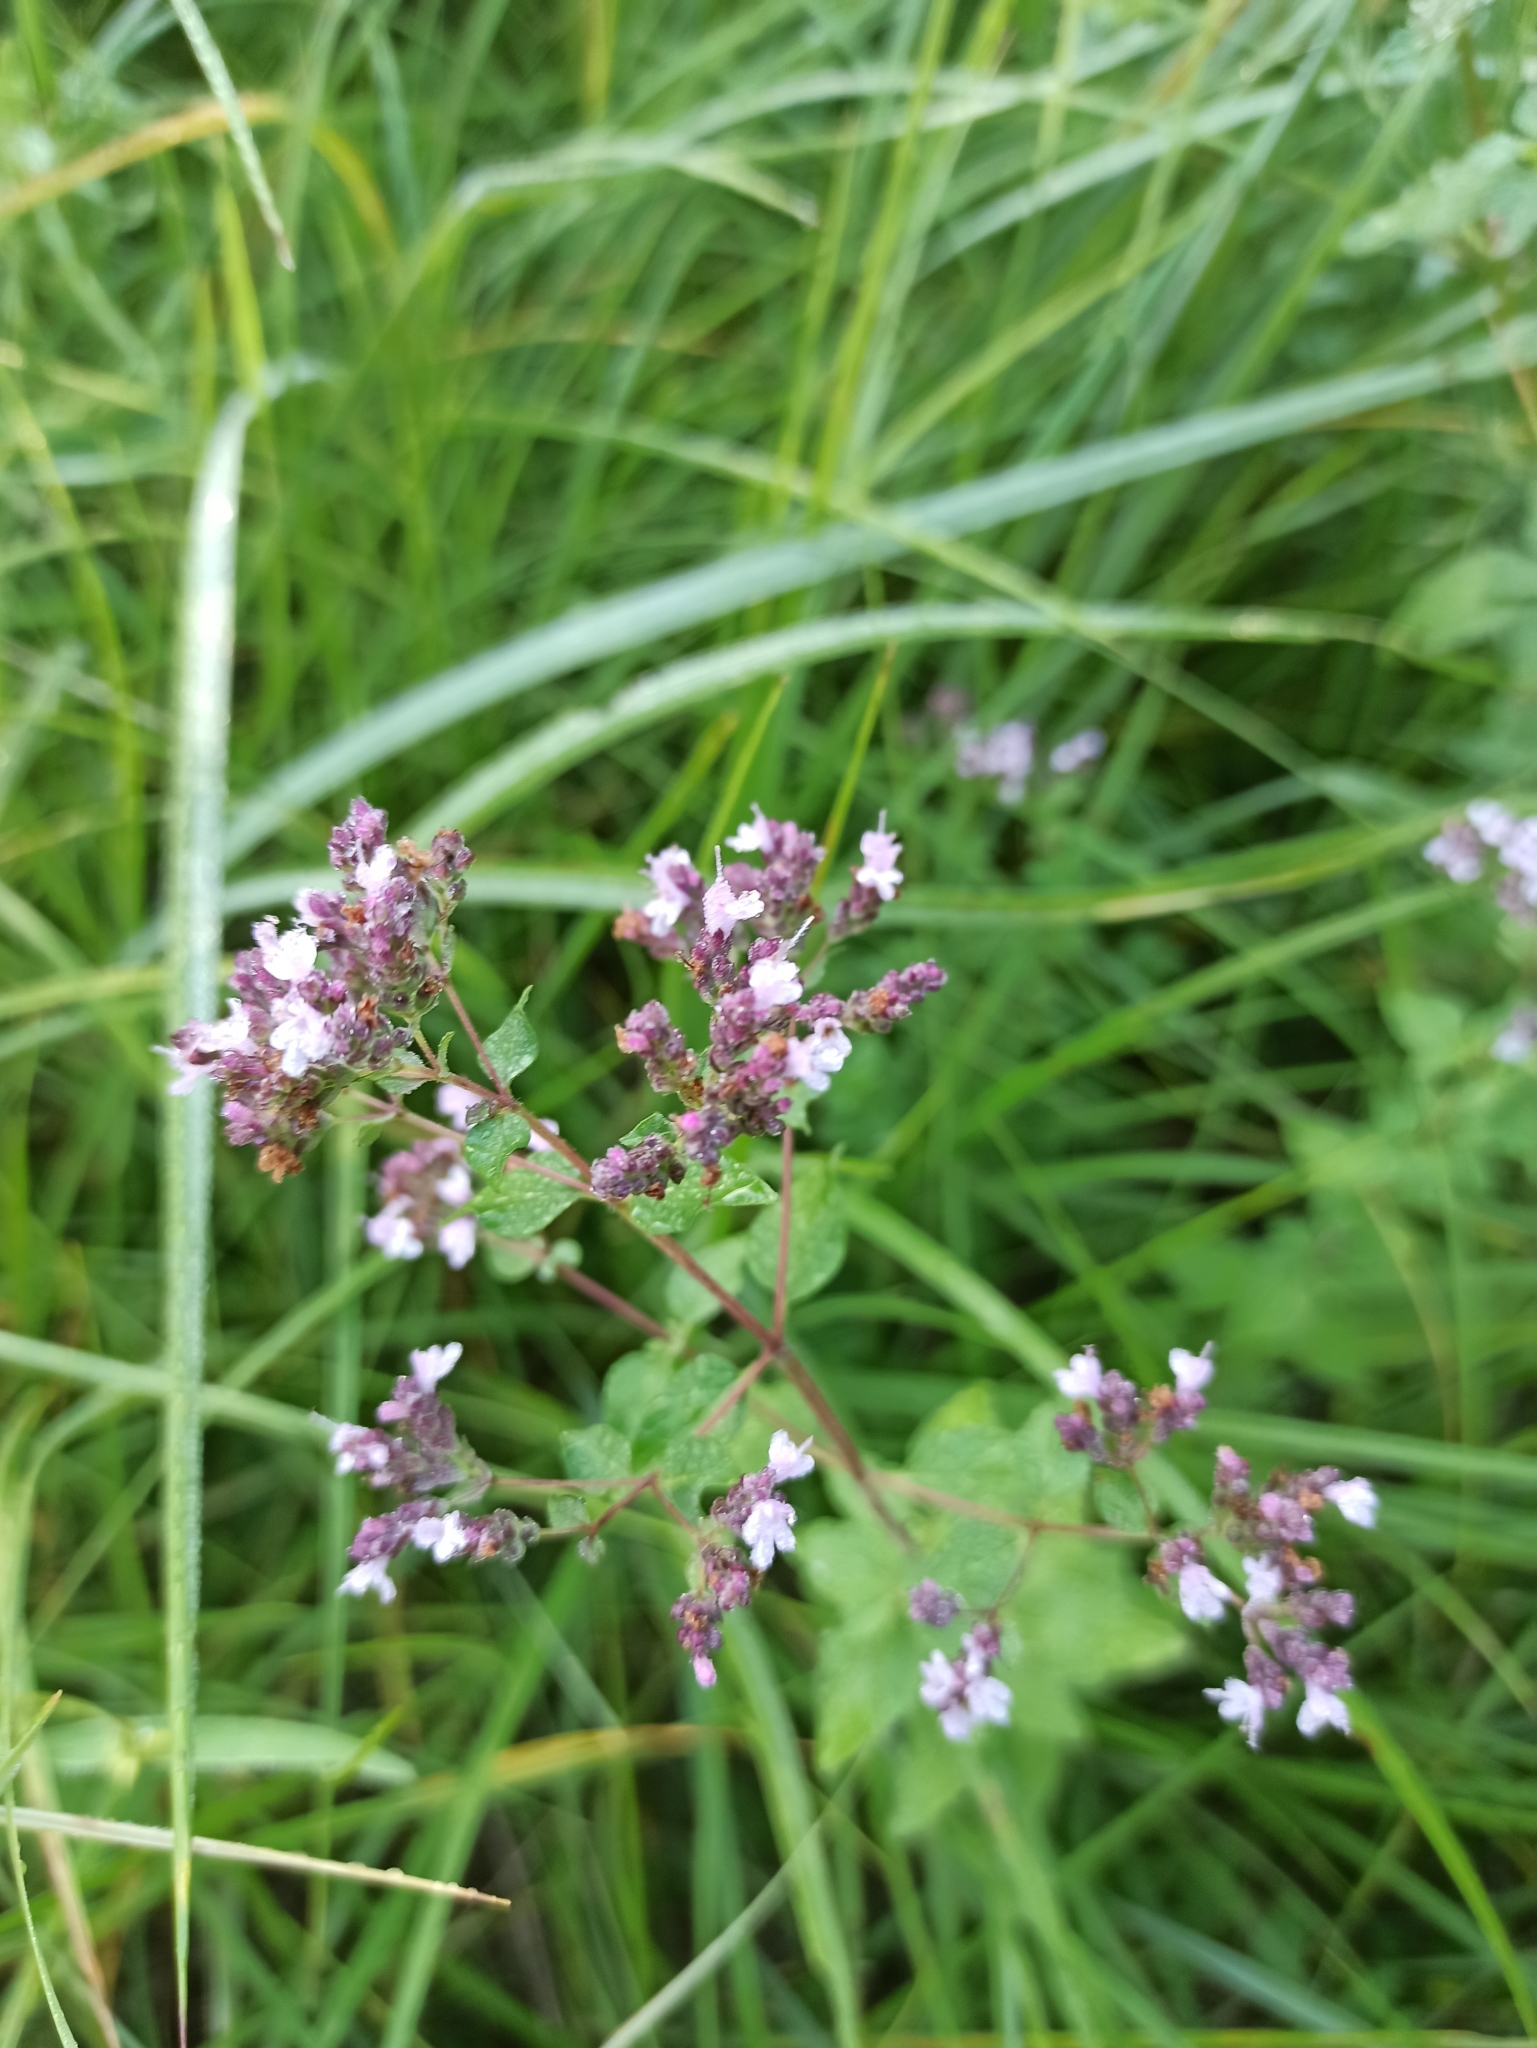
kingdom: Plantae
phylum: Tracheophyta
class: Magnoliopsida
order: Lamiales
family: Lamiaceae
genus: Origanum
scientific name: Origanum vulgare
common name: Wild marjoram
